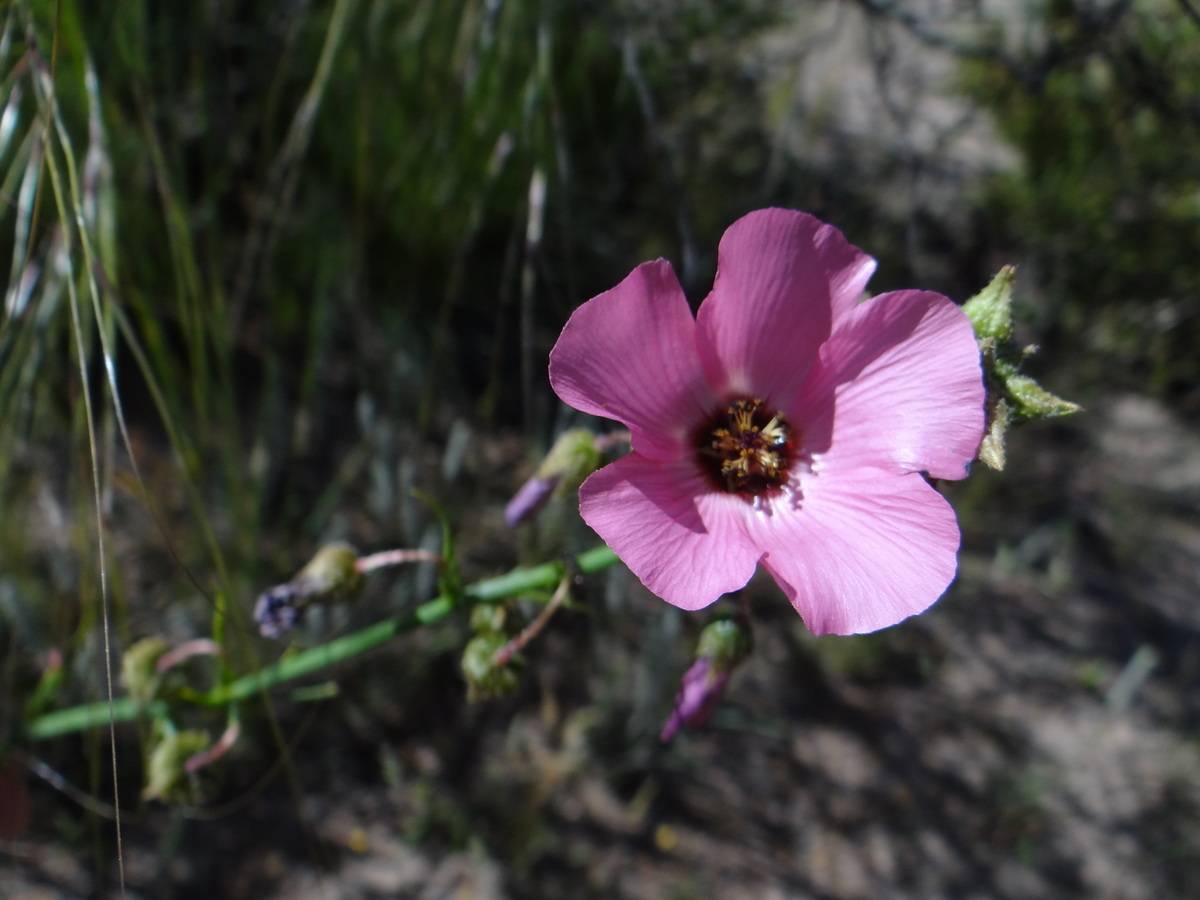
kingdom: Plantae
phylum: Tracheophyta
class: Magnoliopsida
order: Malvales
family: Malvaceae
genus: Lecanophora
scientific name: Lecanophora heterophylla
